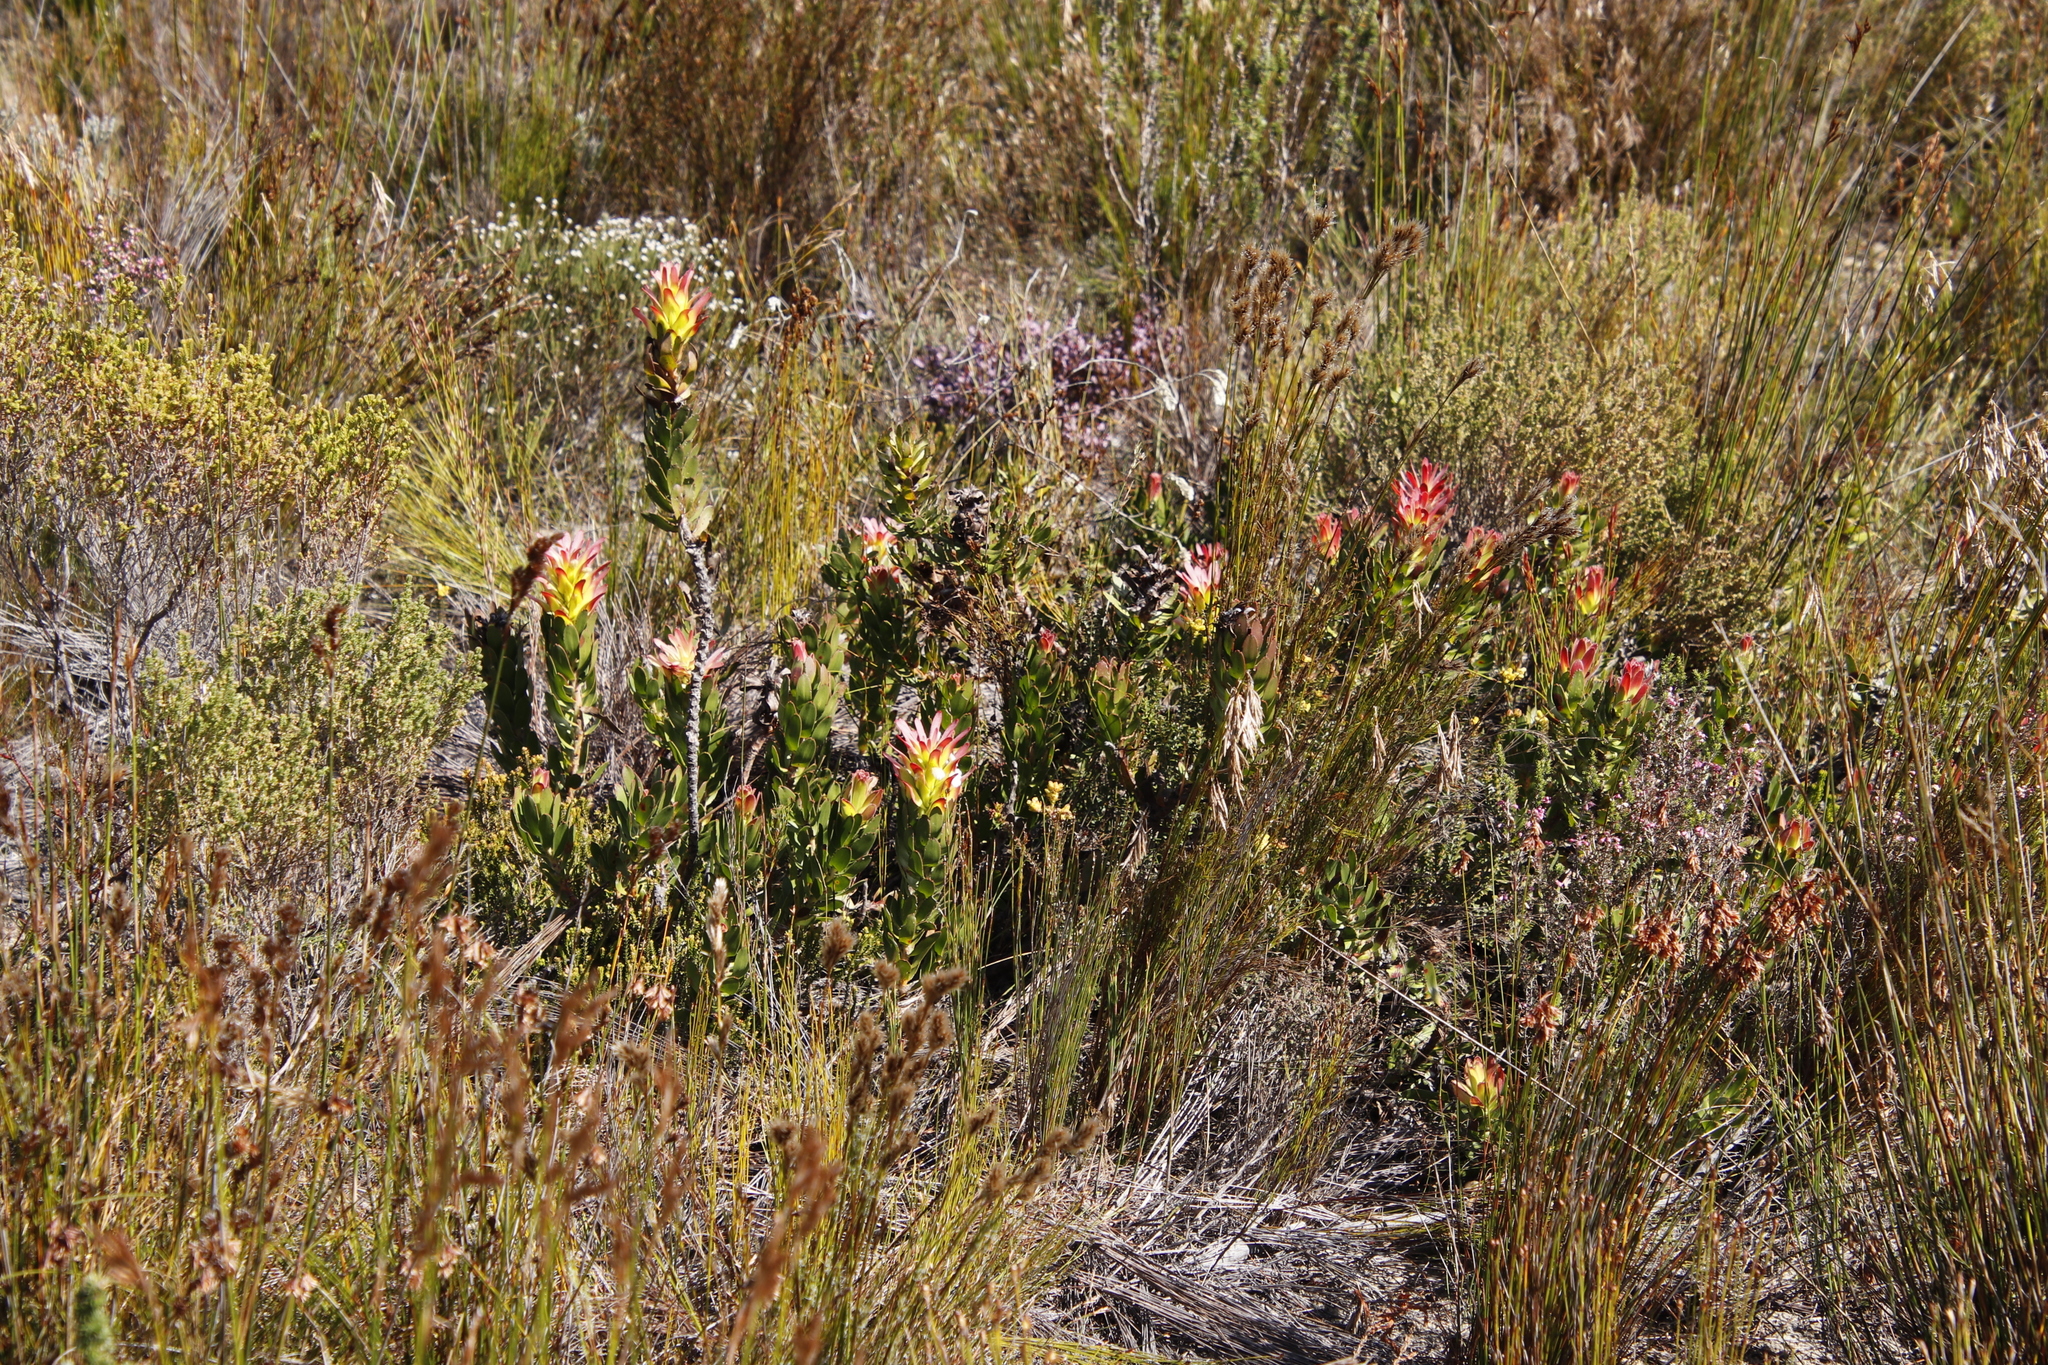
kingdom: Plantae
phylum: Tracheophyta
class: Magnoliopsida
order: Proteales
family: Proteaceae
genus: Mimetes
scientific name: Mimetes cucullatus
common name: Common pagoda
